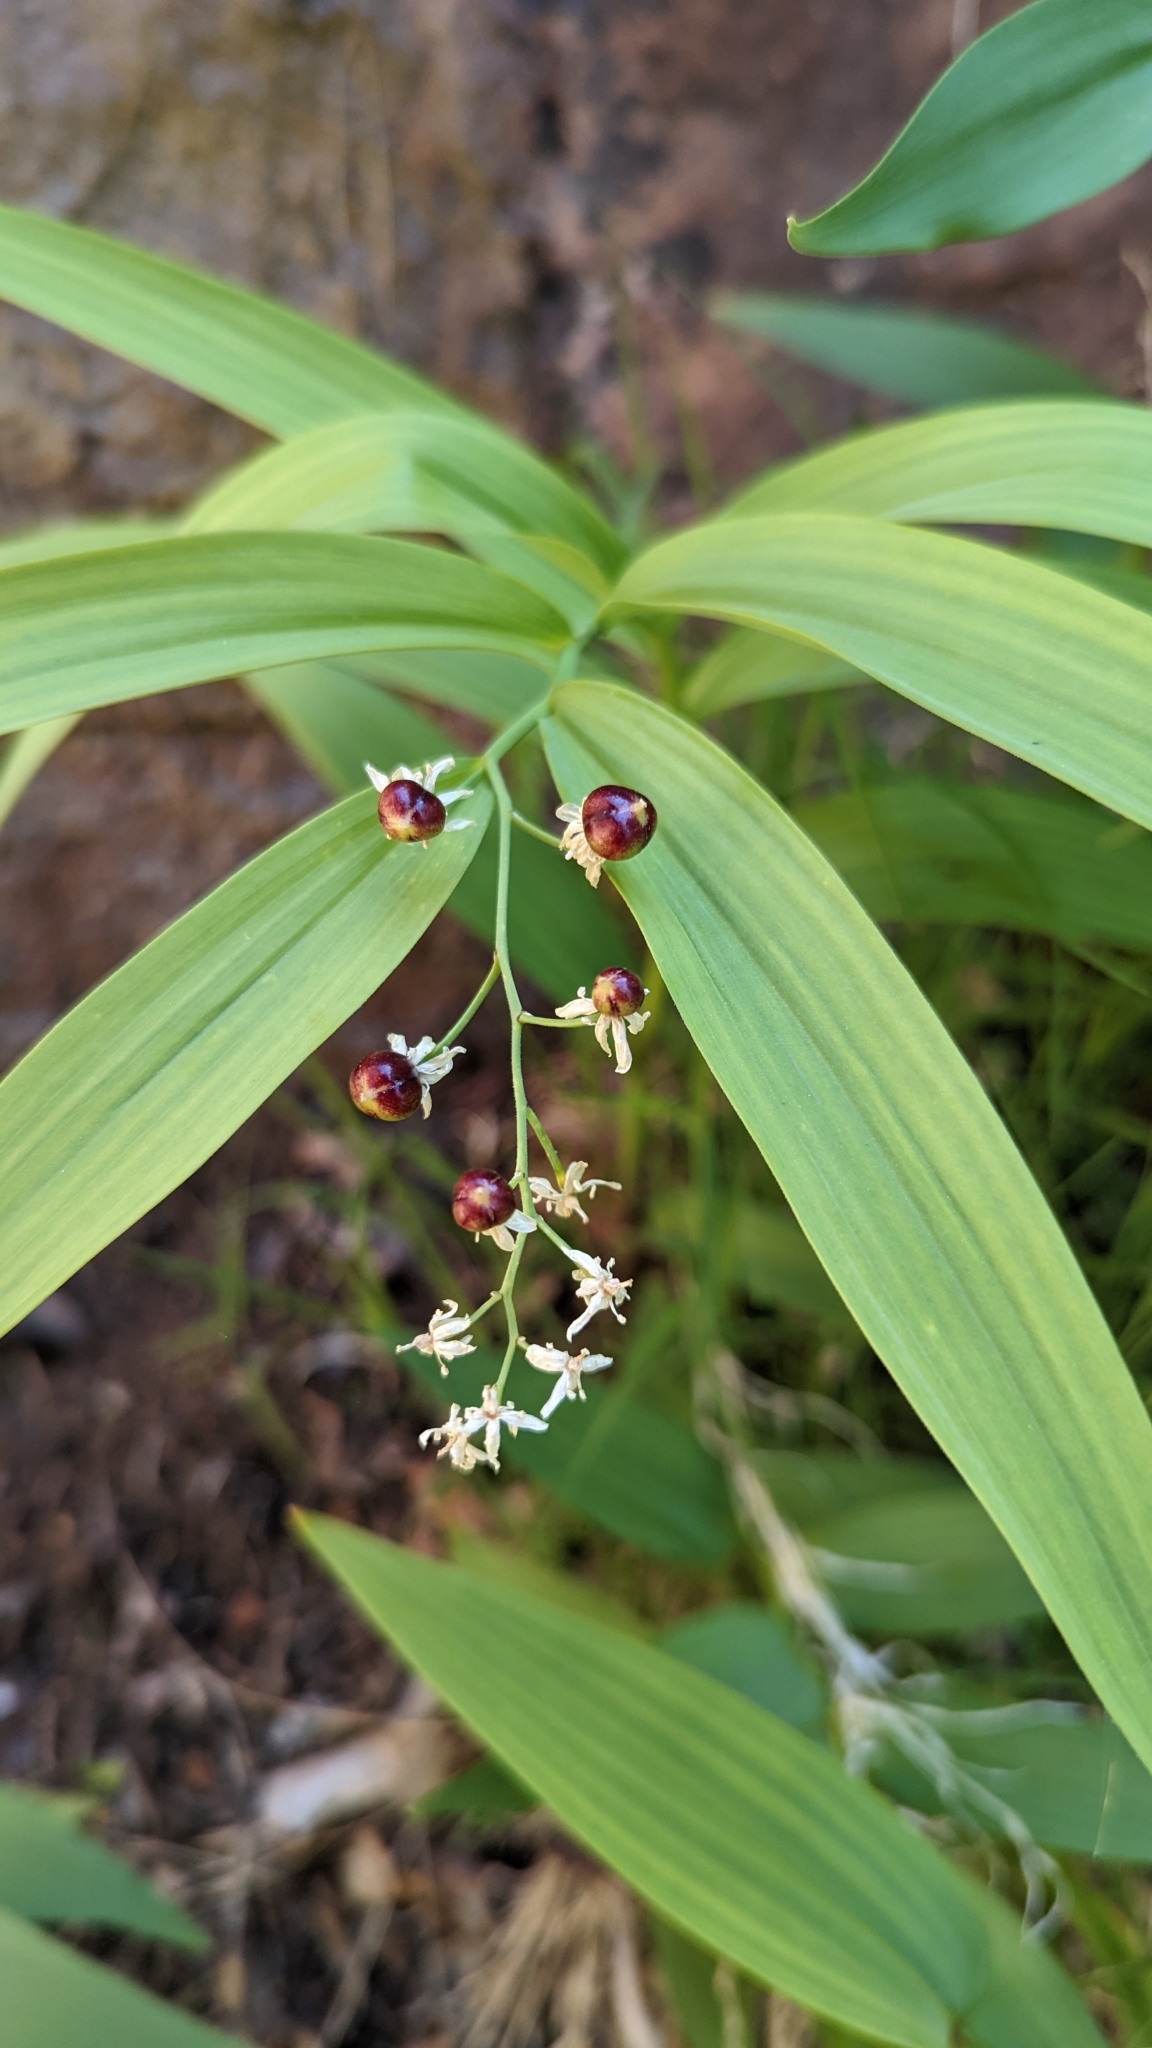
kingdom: Plantae
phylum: Tracheophyta
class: Liliopsida
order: Asparagales
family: Asparagaceae
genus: Maianthemum
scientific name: Maianthemum stellatum
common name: Little false solomon's seal
